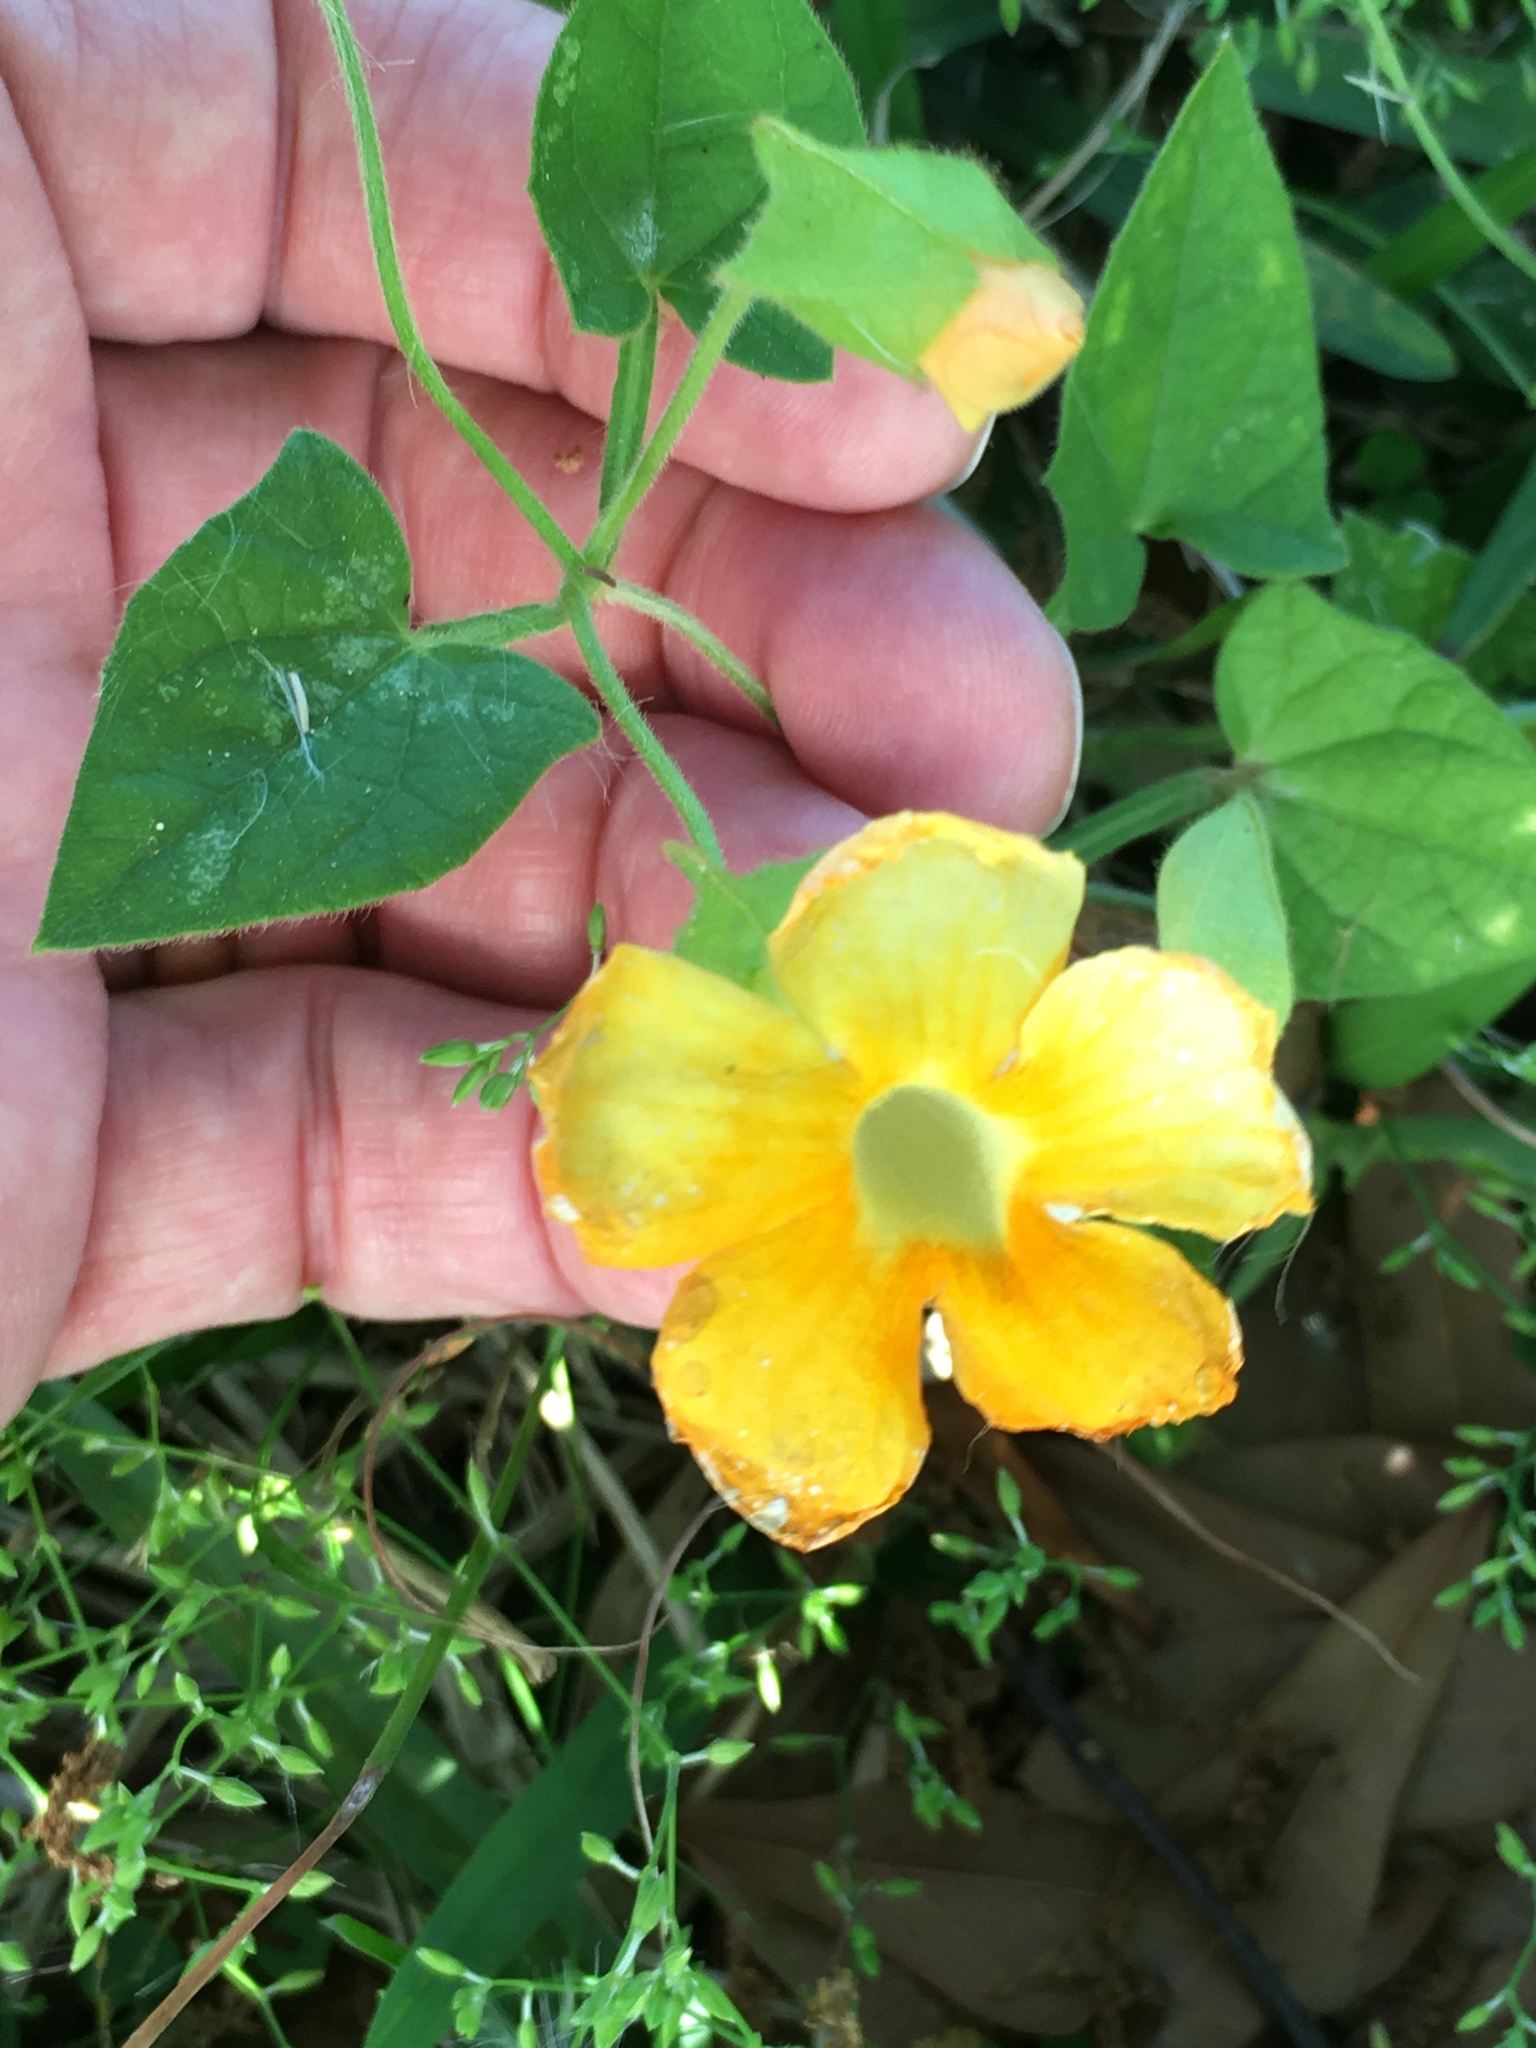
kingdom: Plantae
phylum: Tracheophyta
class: Magnoliopsida
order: Lamiales
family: Acanthaceae
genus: Thunbergia
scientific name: Thunbergia alata
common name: Blackeyed susan vine
